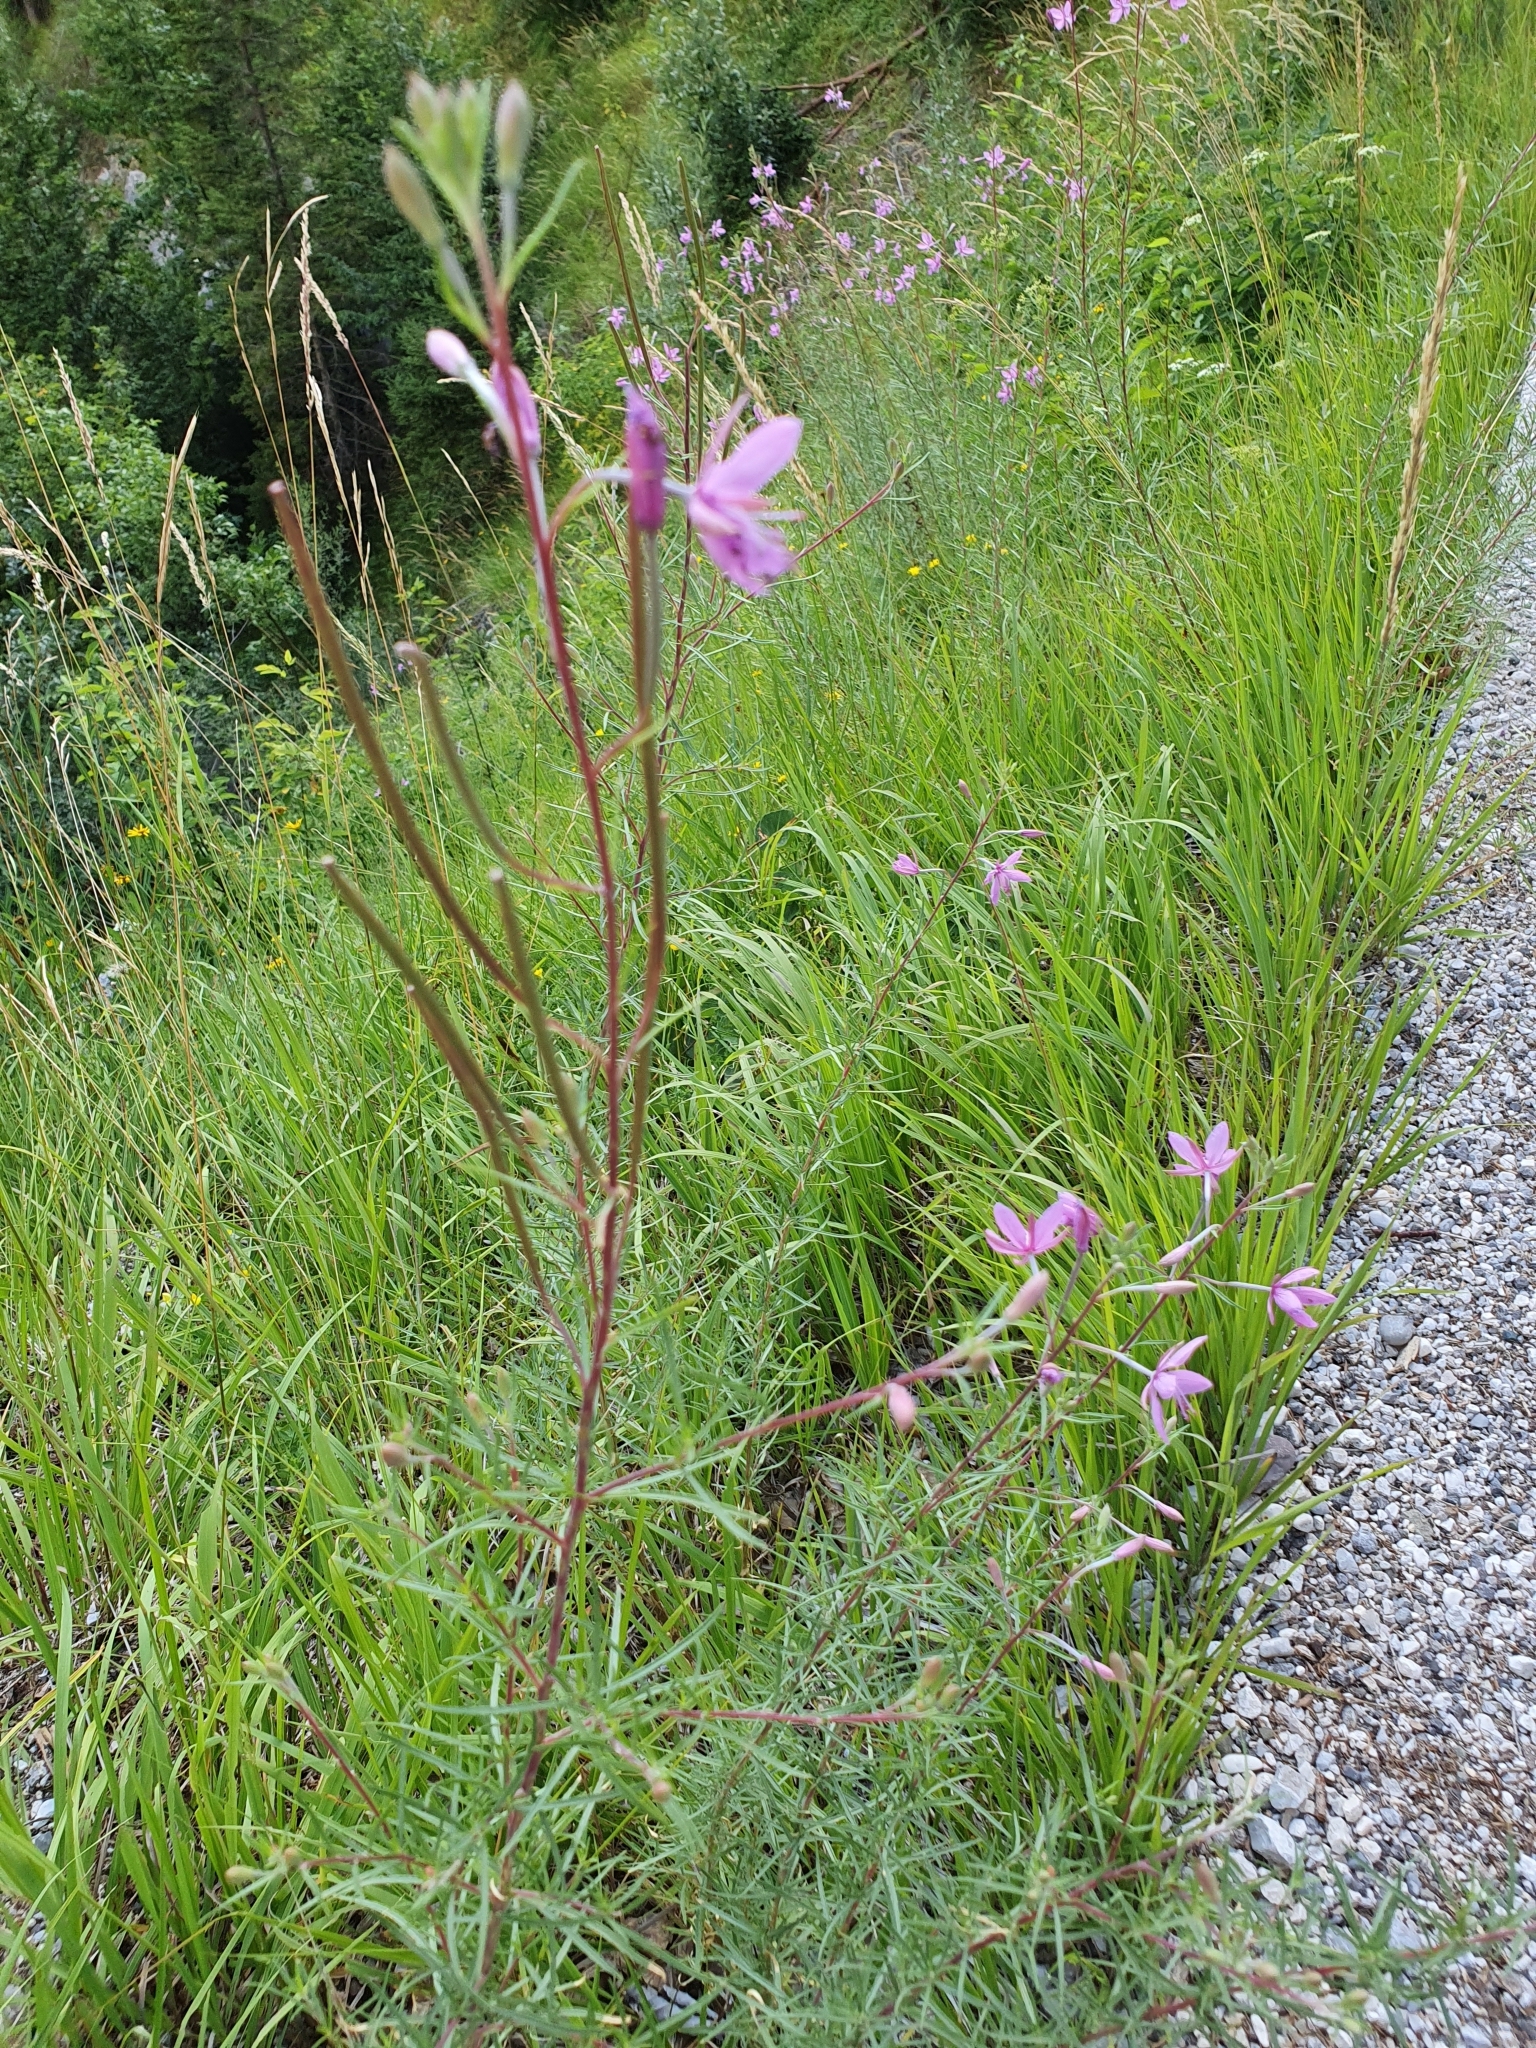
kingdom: Plantae
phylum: Tracheophyta
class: Magnoliopsida
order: Myrtales
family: Onagraceae
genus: Chamaenerion
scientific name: Chamaenerion dodonaei
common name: Rosemary-leaved willowherb
